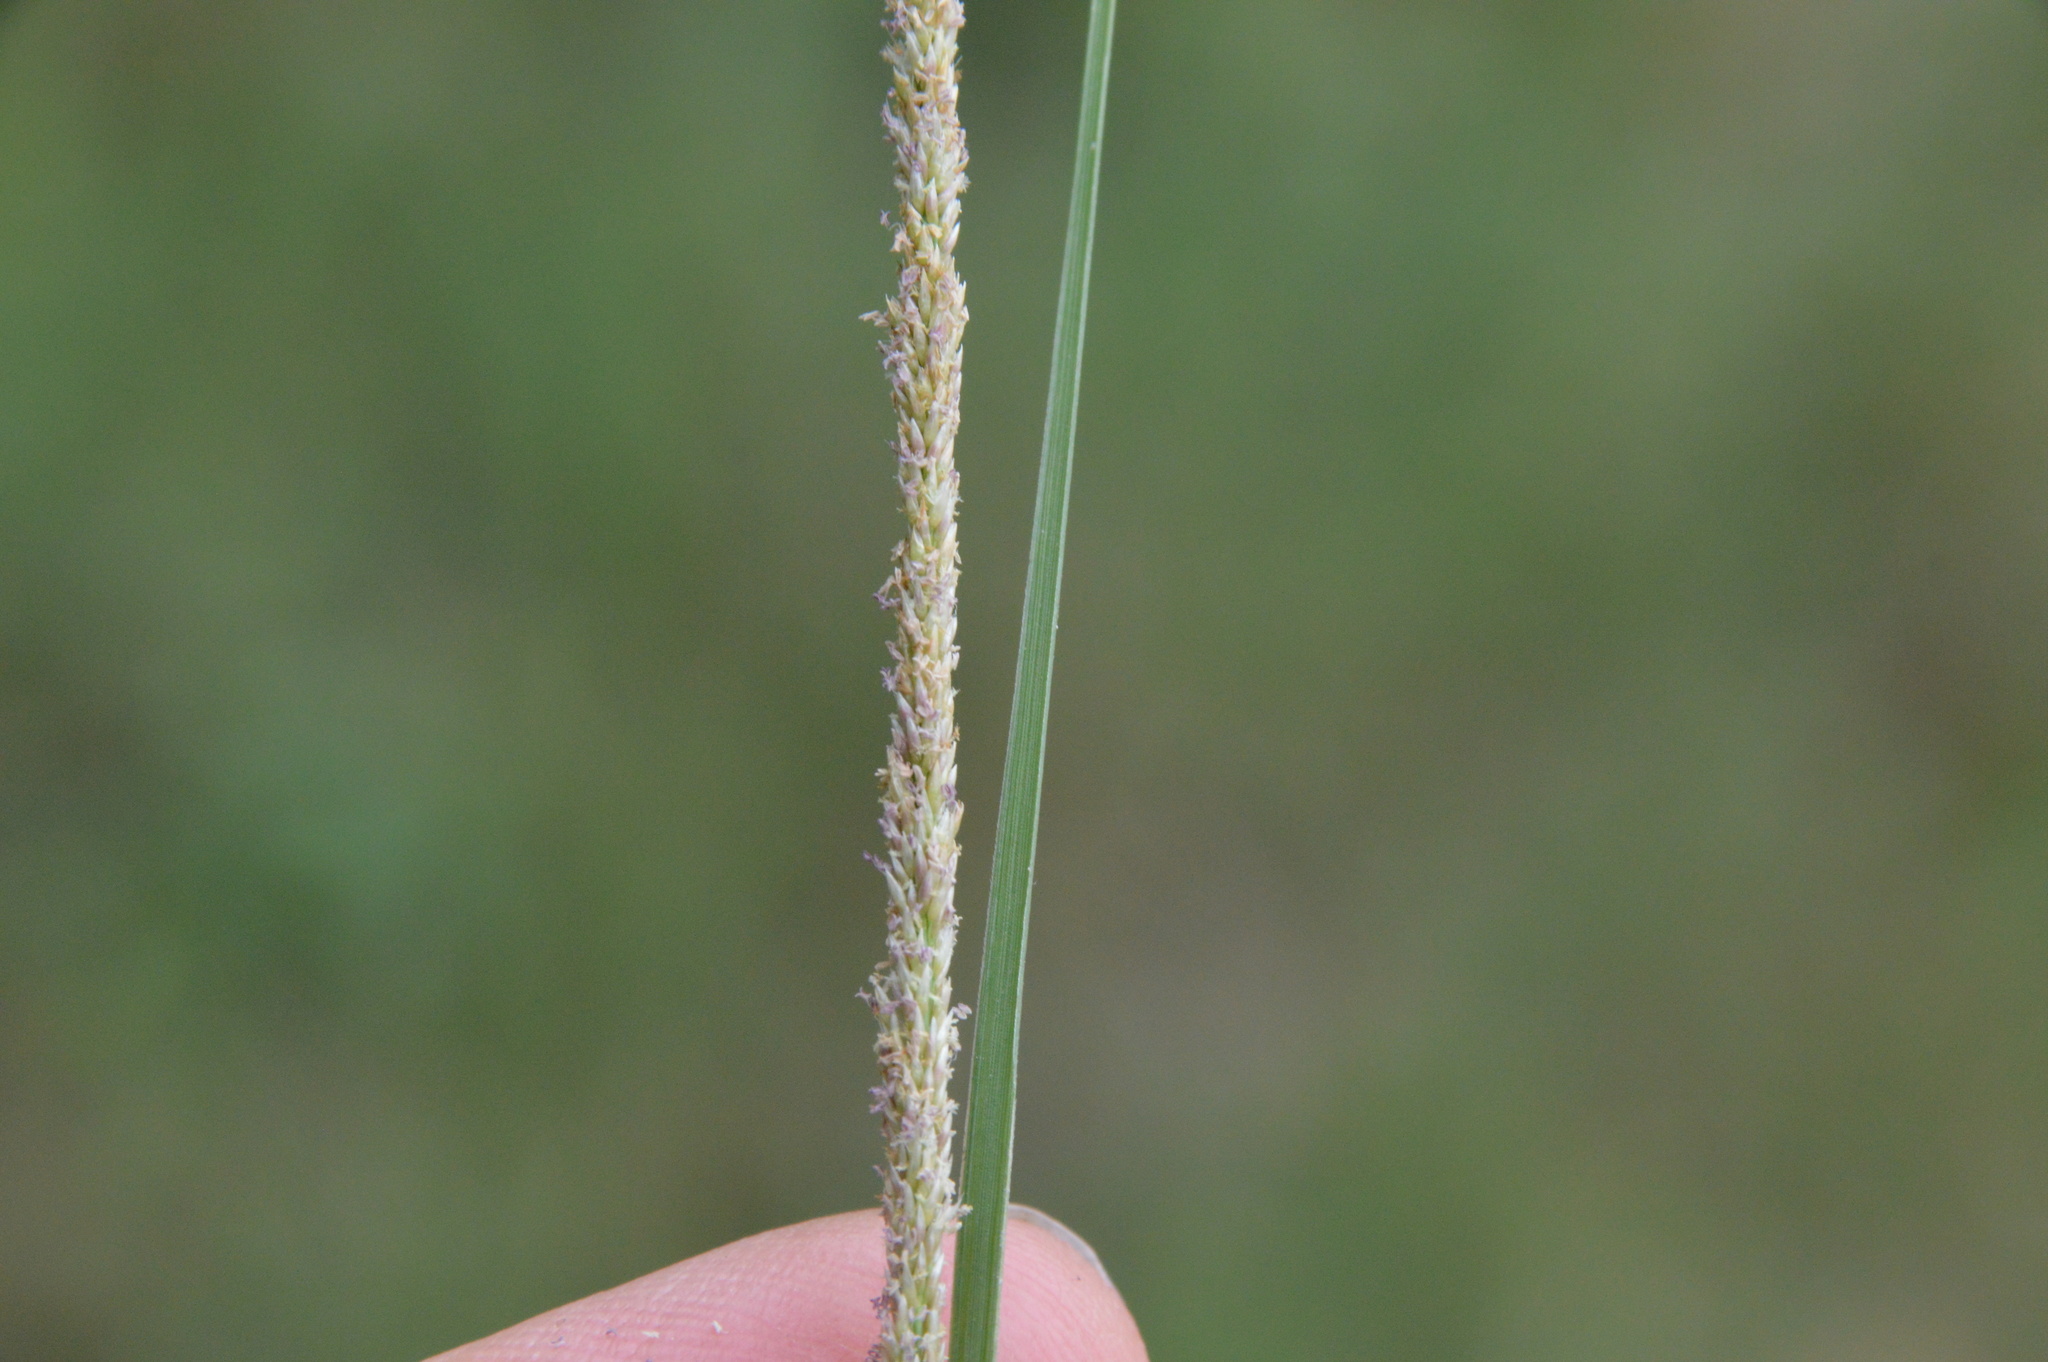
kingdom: Plantae
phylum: Tracheophyta
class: Liliopsida
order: Poales
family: Poaceae
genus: Sporobolus
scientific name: Sporobolus indicus
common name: Smut grass
